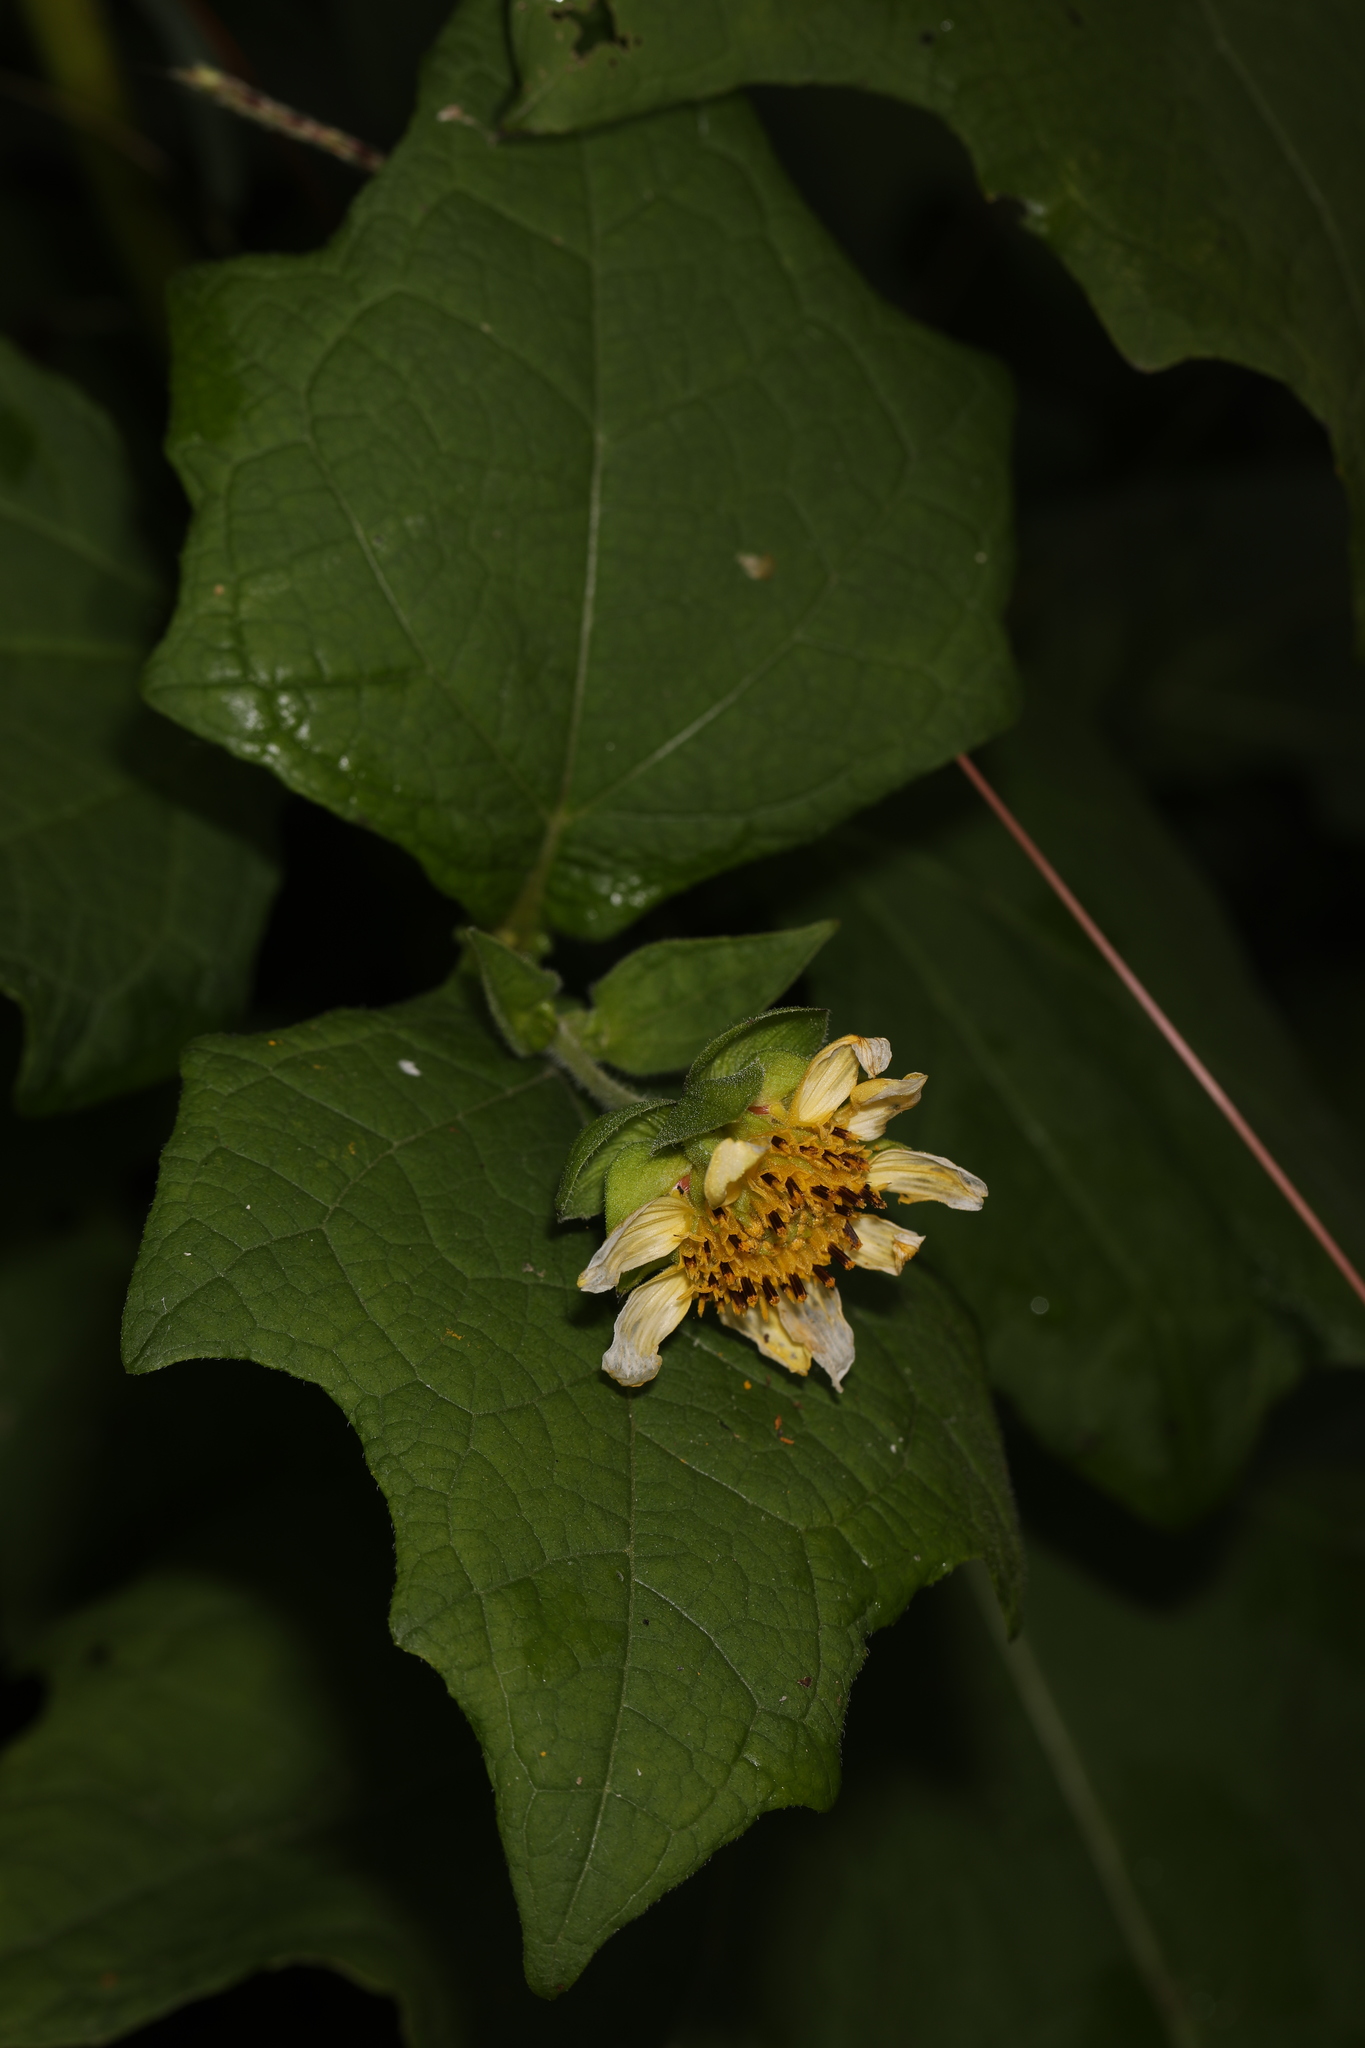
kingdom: Plantae
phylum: Tracheophyta
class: Magnoliopsida
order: Asterales
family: Asteraceae
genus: Smallanthus
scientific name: Smallanthus uvedalia
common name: Bear's-foot
